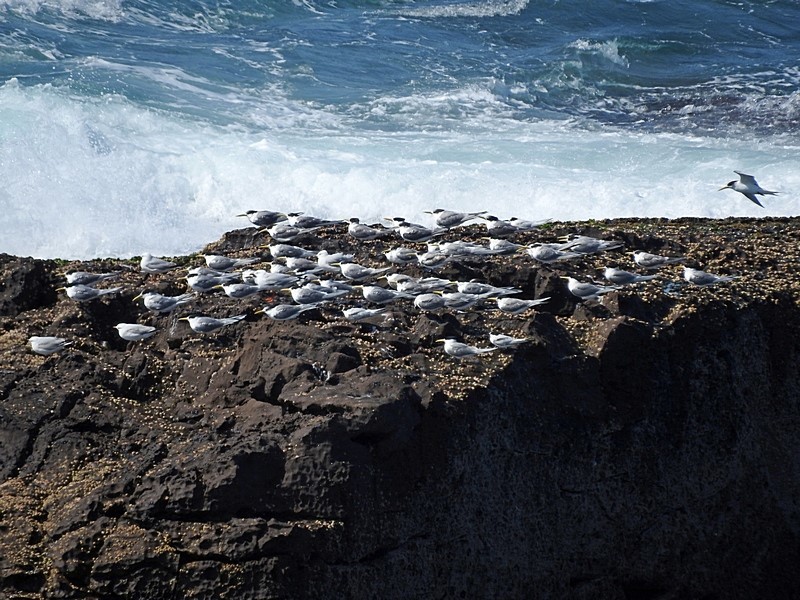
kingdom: Animalia
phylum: Chordata
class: Aves
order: Charadriiformes
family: Laridae
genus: Thalasseus
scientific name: Thalasseus bergii
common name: Greater crested tern
